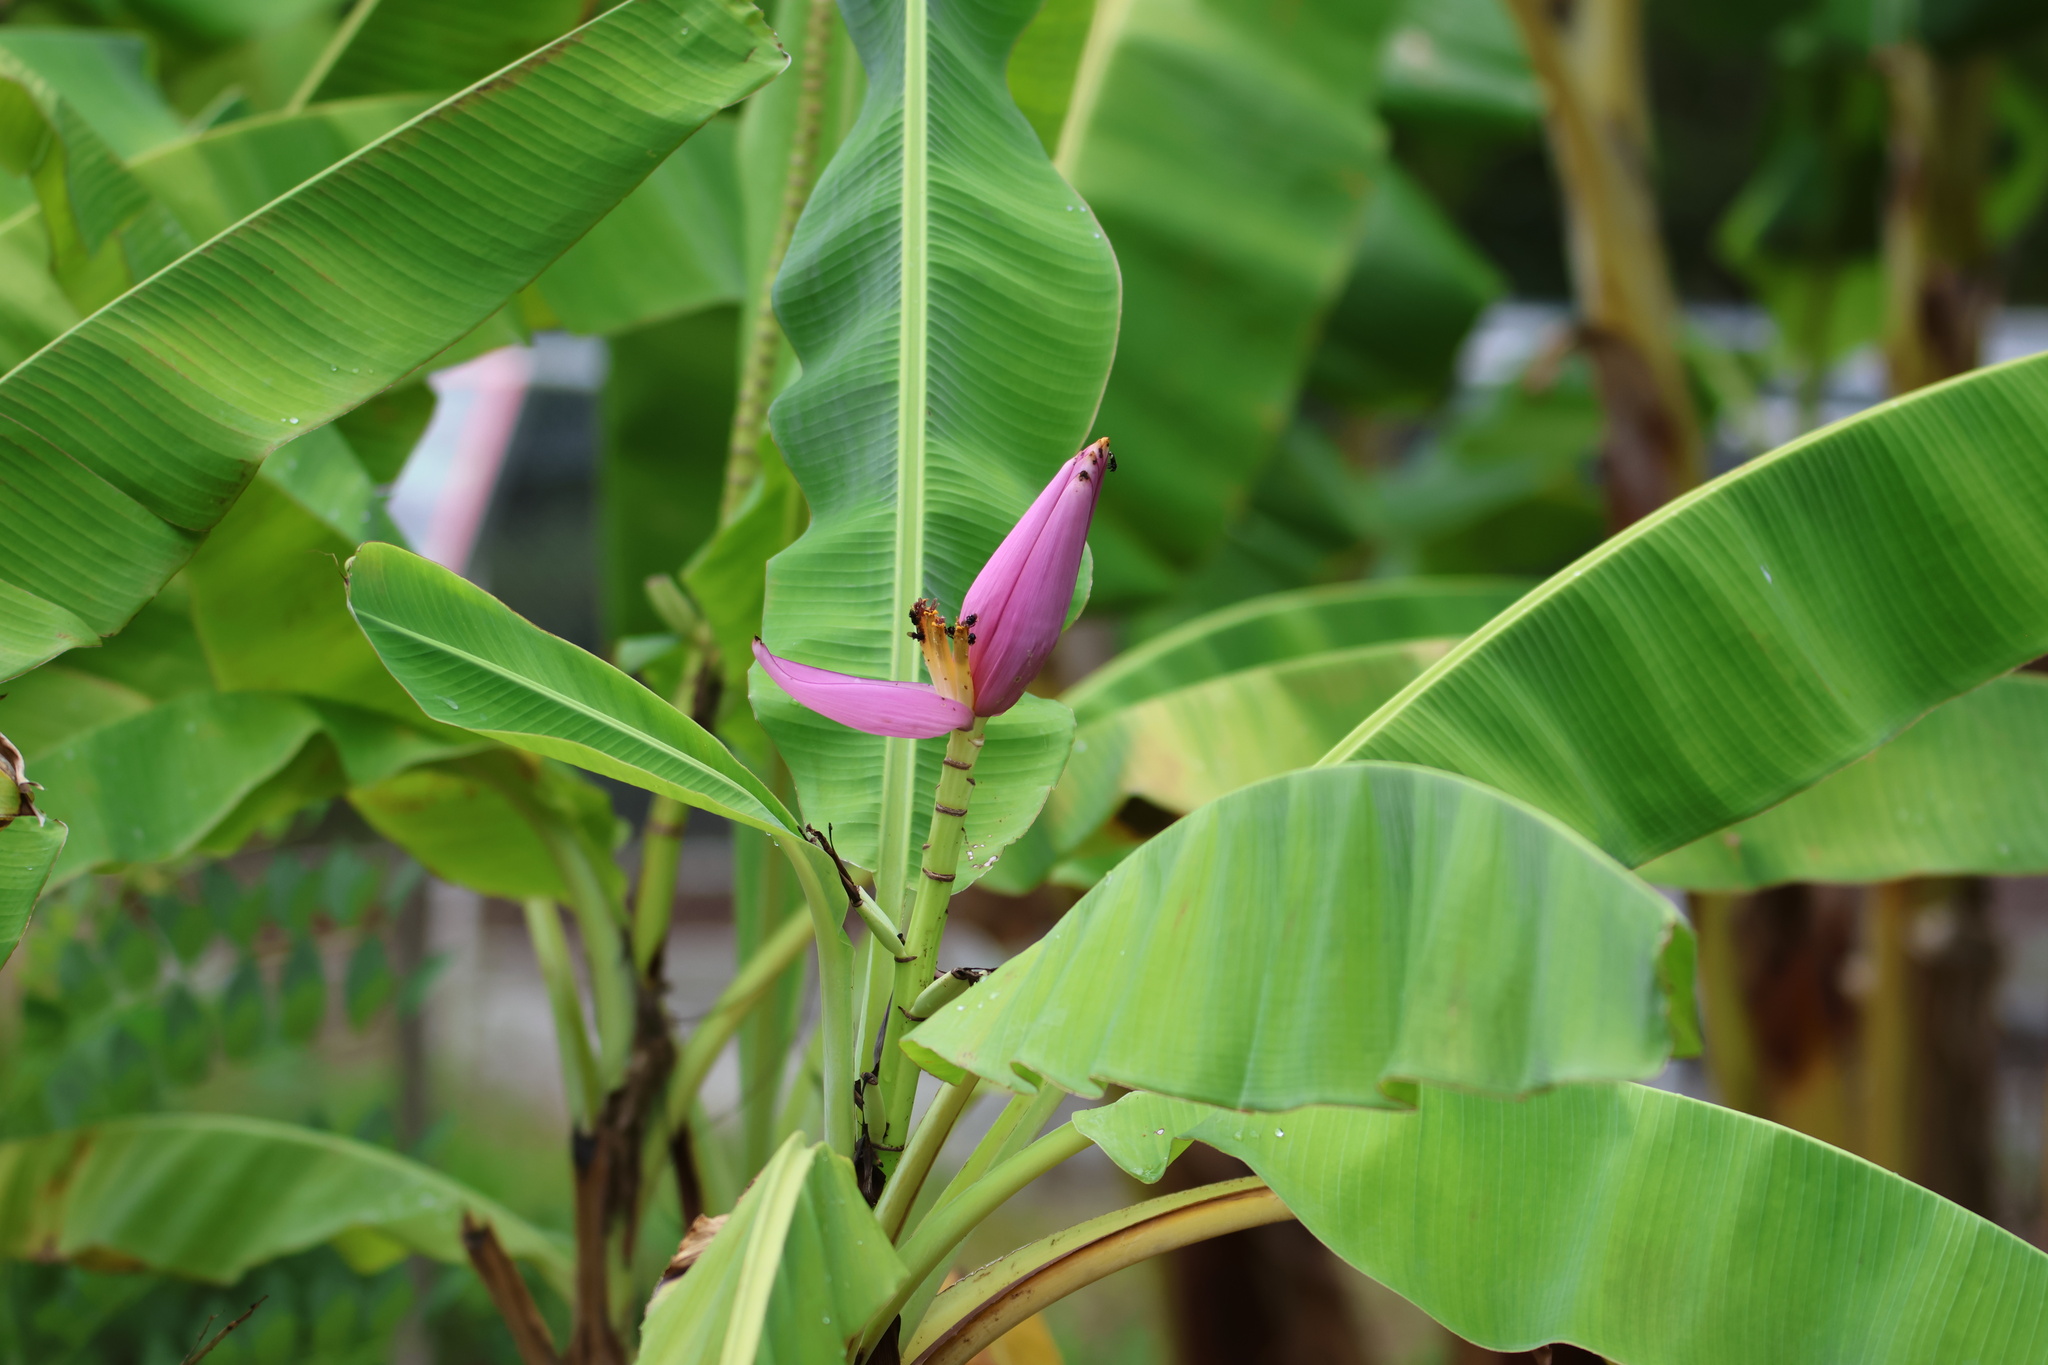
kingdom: Plantae
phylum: Tracheophyta
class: Liliopsida
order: Zingiberales
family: Musaceae
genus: Musa
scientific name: Musa ornata
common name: Flowering banana
